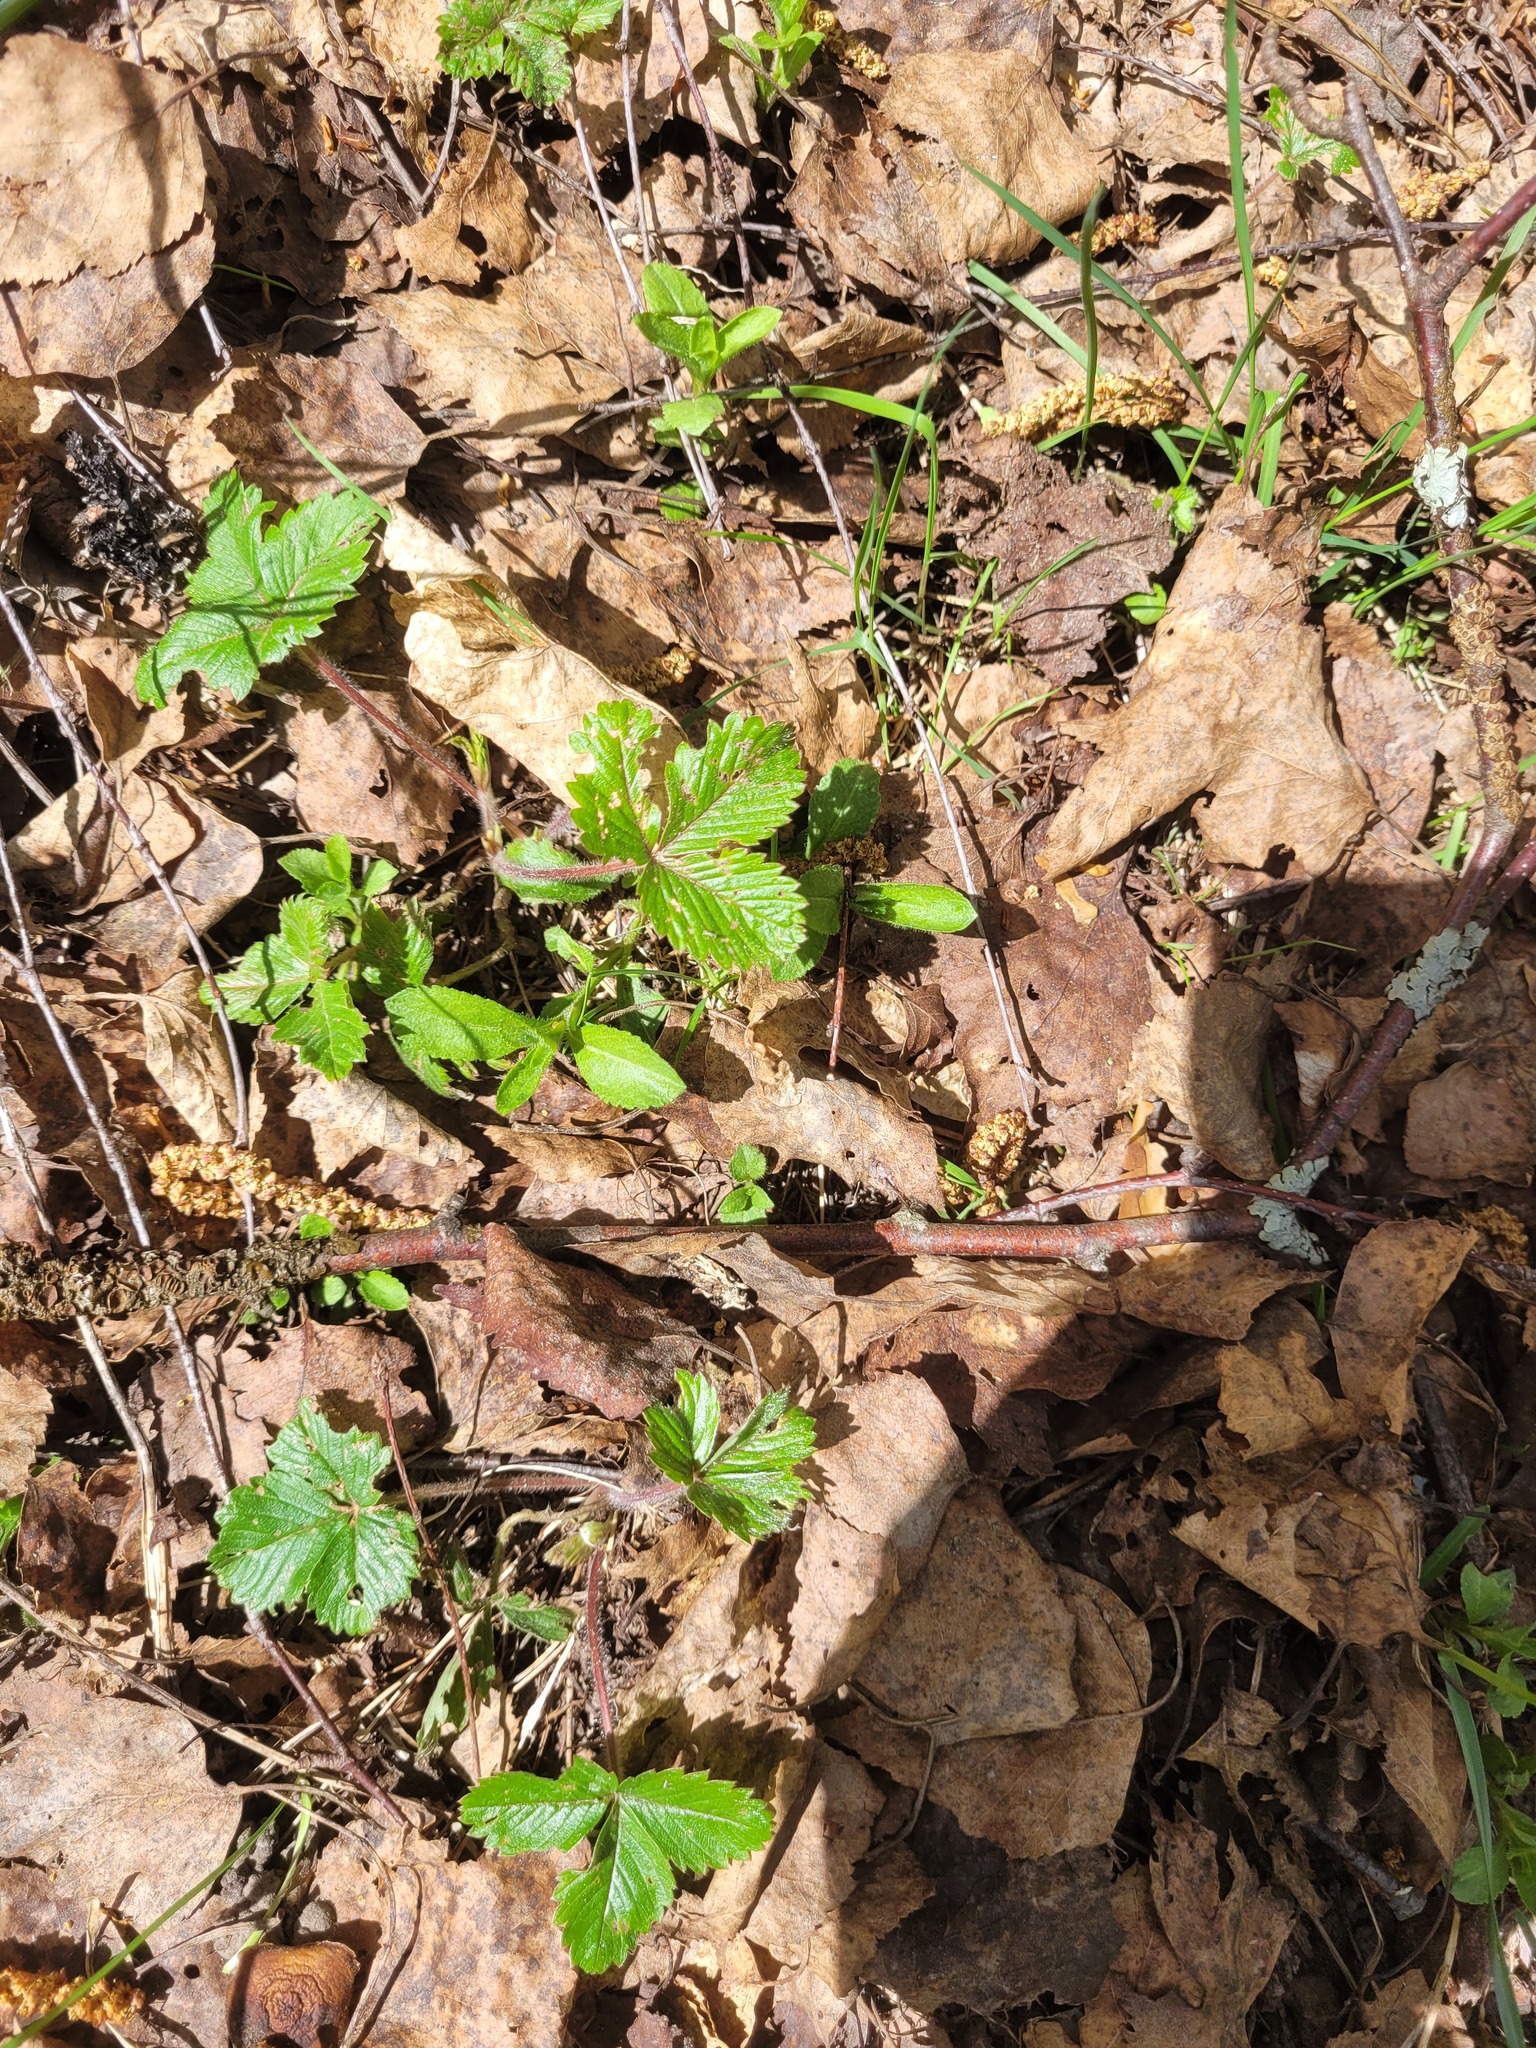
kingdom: Plantae
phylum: Tracheophyta
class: Magnoliopsida
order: Lamiales
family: Plantaginaceae
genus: Veronica
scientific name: Veronica officinalis
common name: Common speedwell
